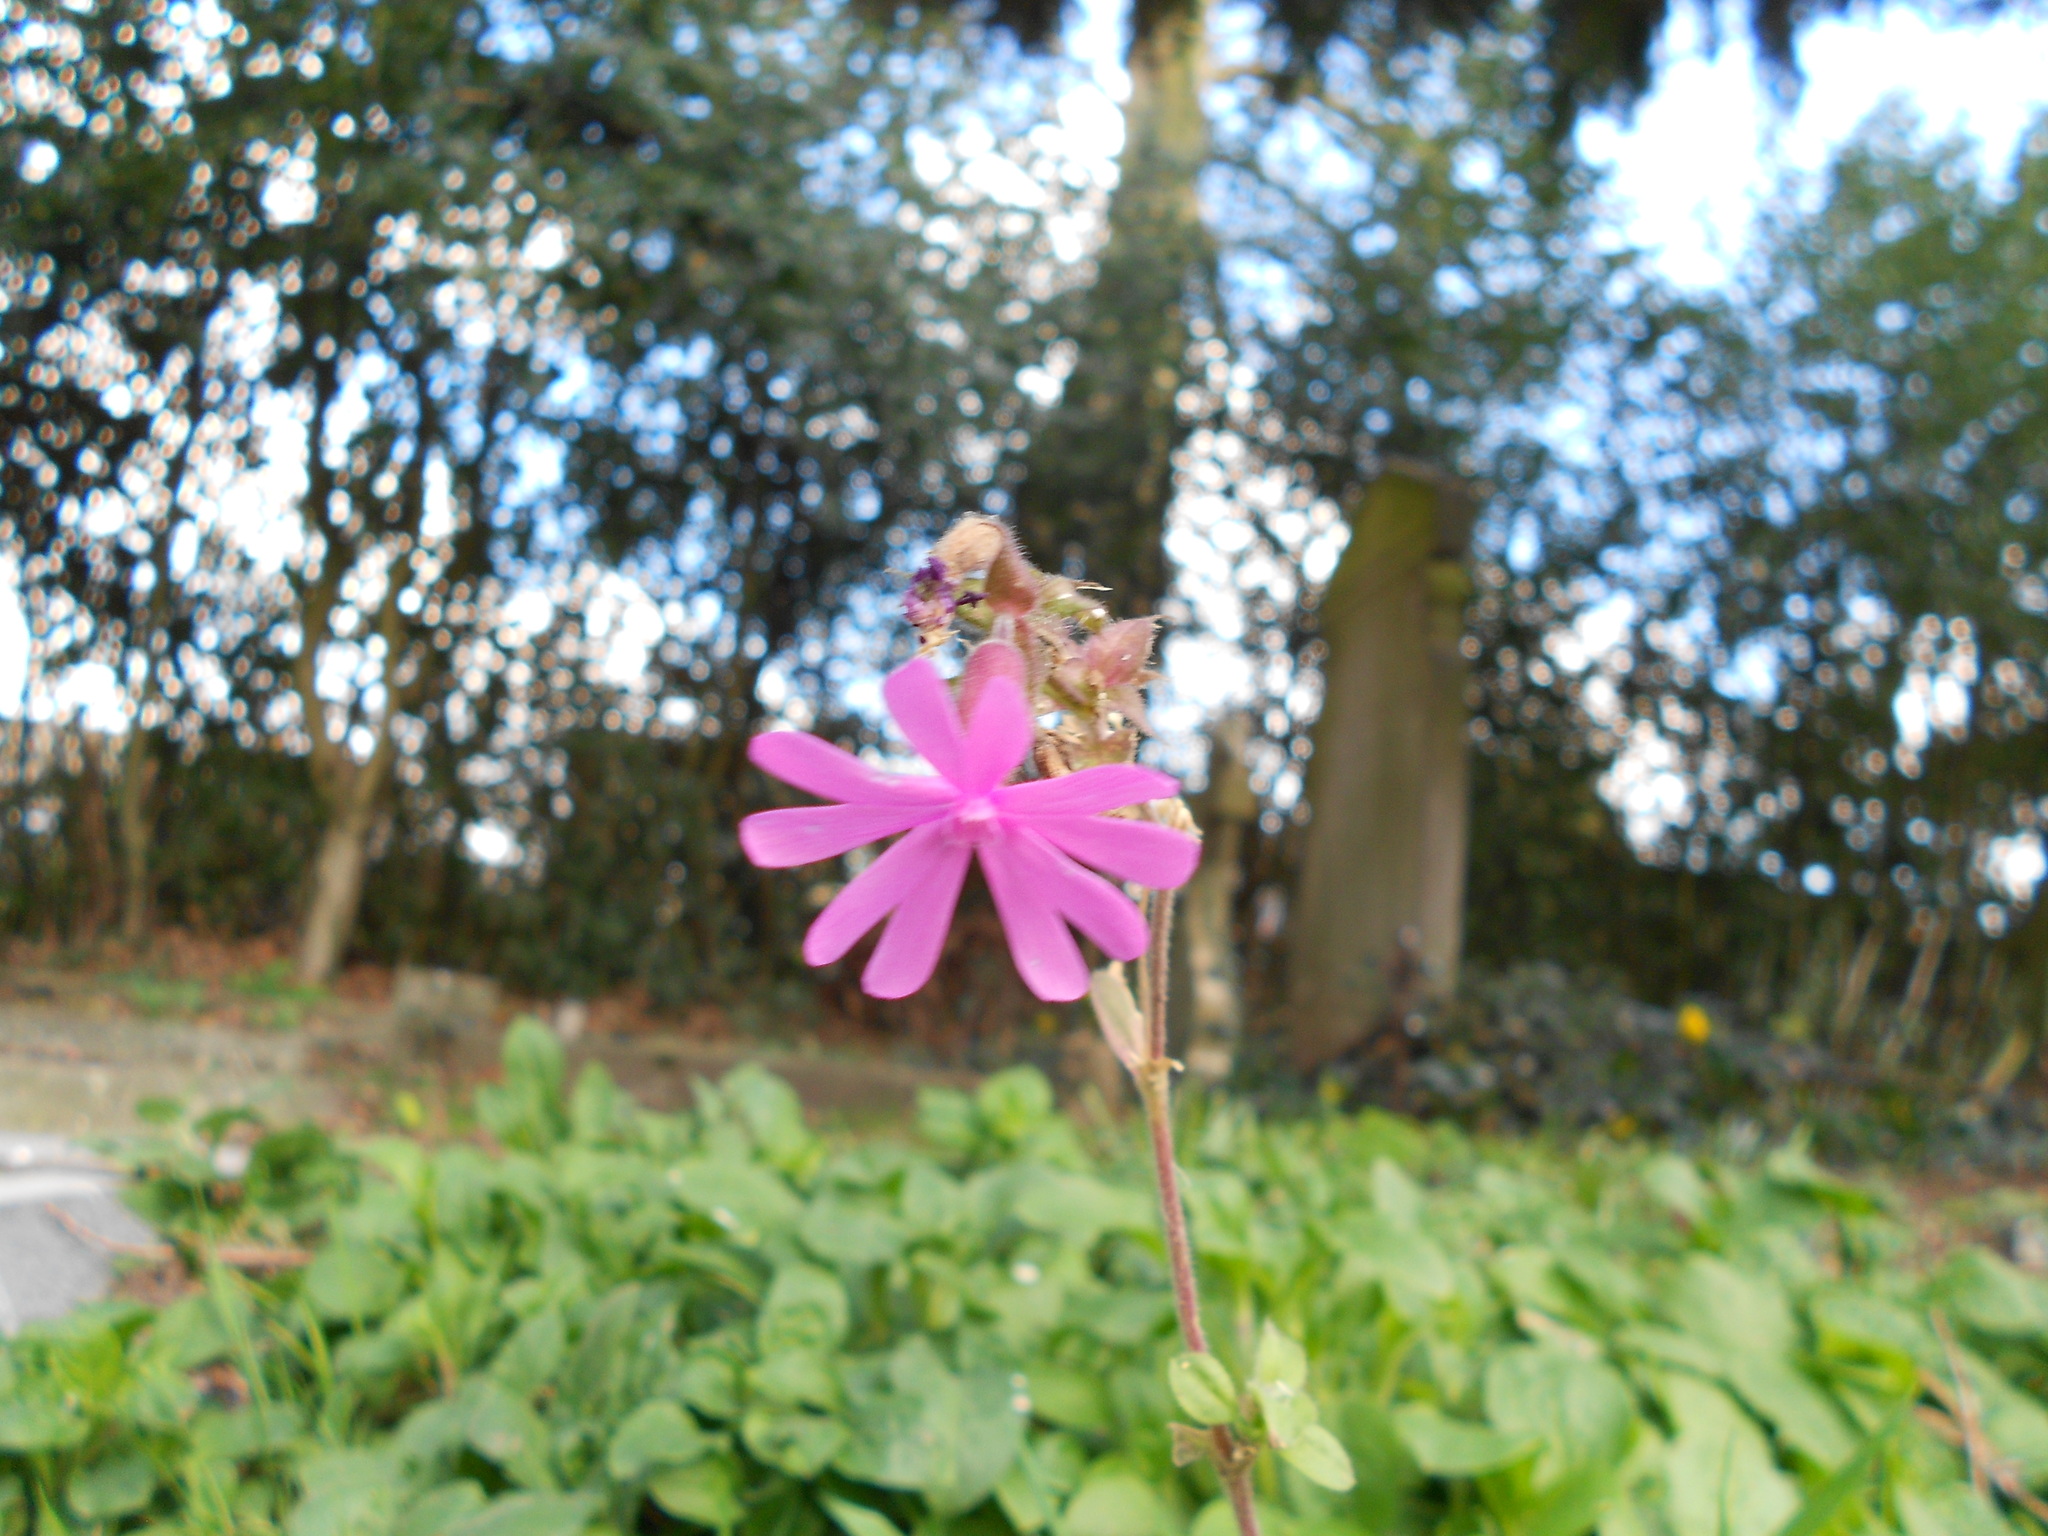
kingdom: Plantae
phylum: Tracheophyta
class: Magnoliopsida
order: Caryophyllales
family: Caryophyllaceae
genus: Silene
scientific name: Silene dioica
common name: Red campion
